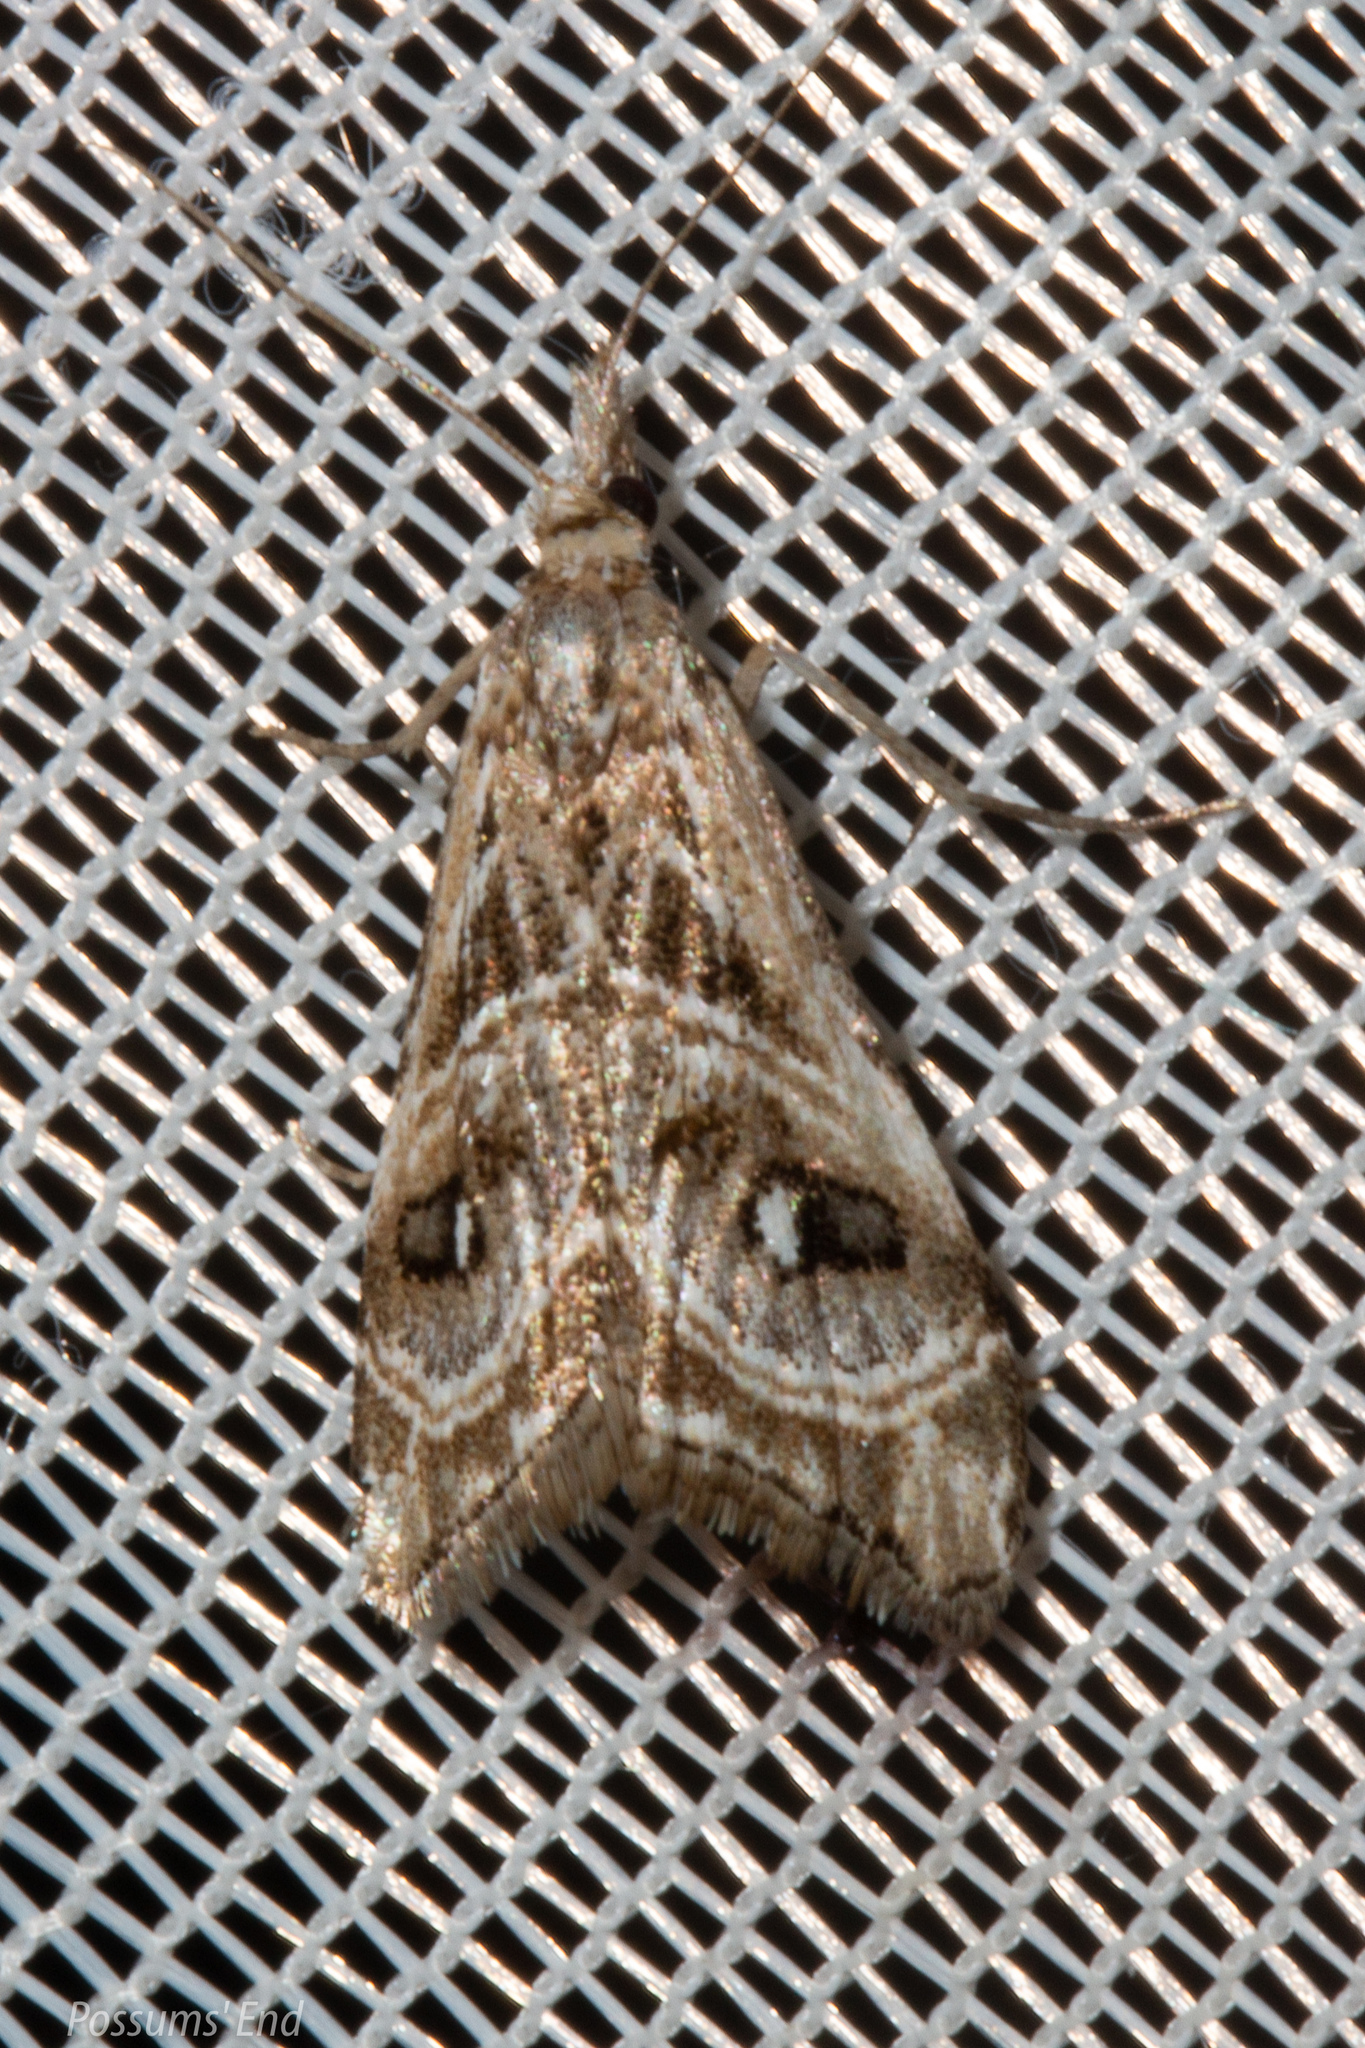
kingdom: Animalia
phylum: Arthropoda
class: Insecta
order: Lepidoptera
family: Crambidae
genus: Gadira
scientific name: Gadira acerella
